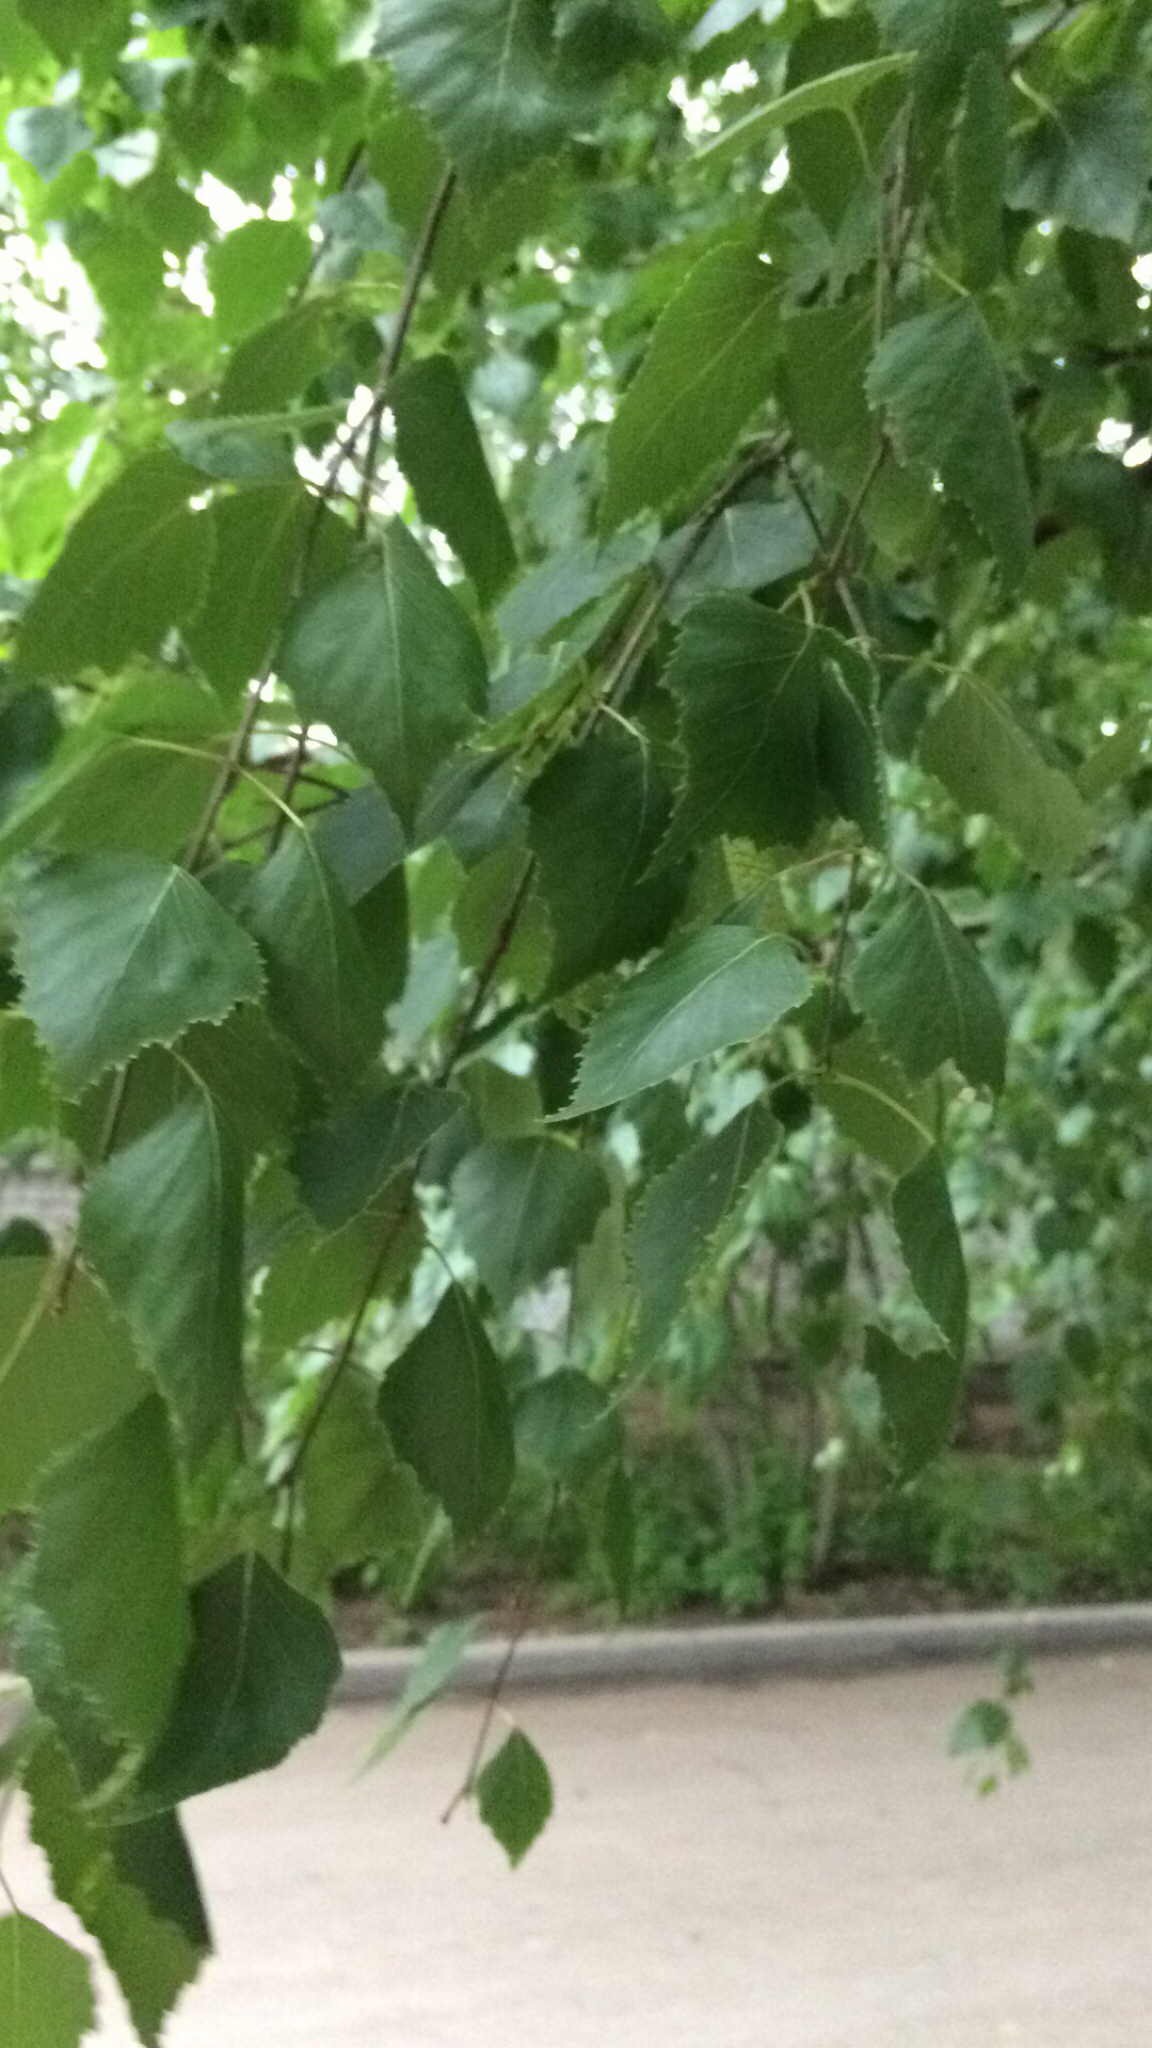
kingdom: Plantae
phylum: Tracheophyta
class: Magnoliopsida
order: Fagales
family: Betulaceae
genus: Betula
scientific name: Betula pendula
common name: Silver birch
